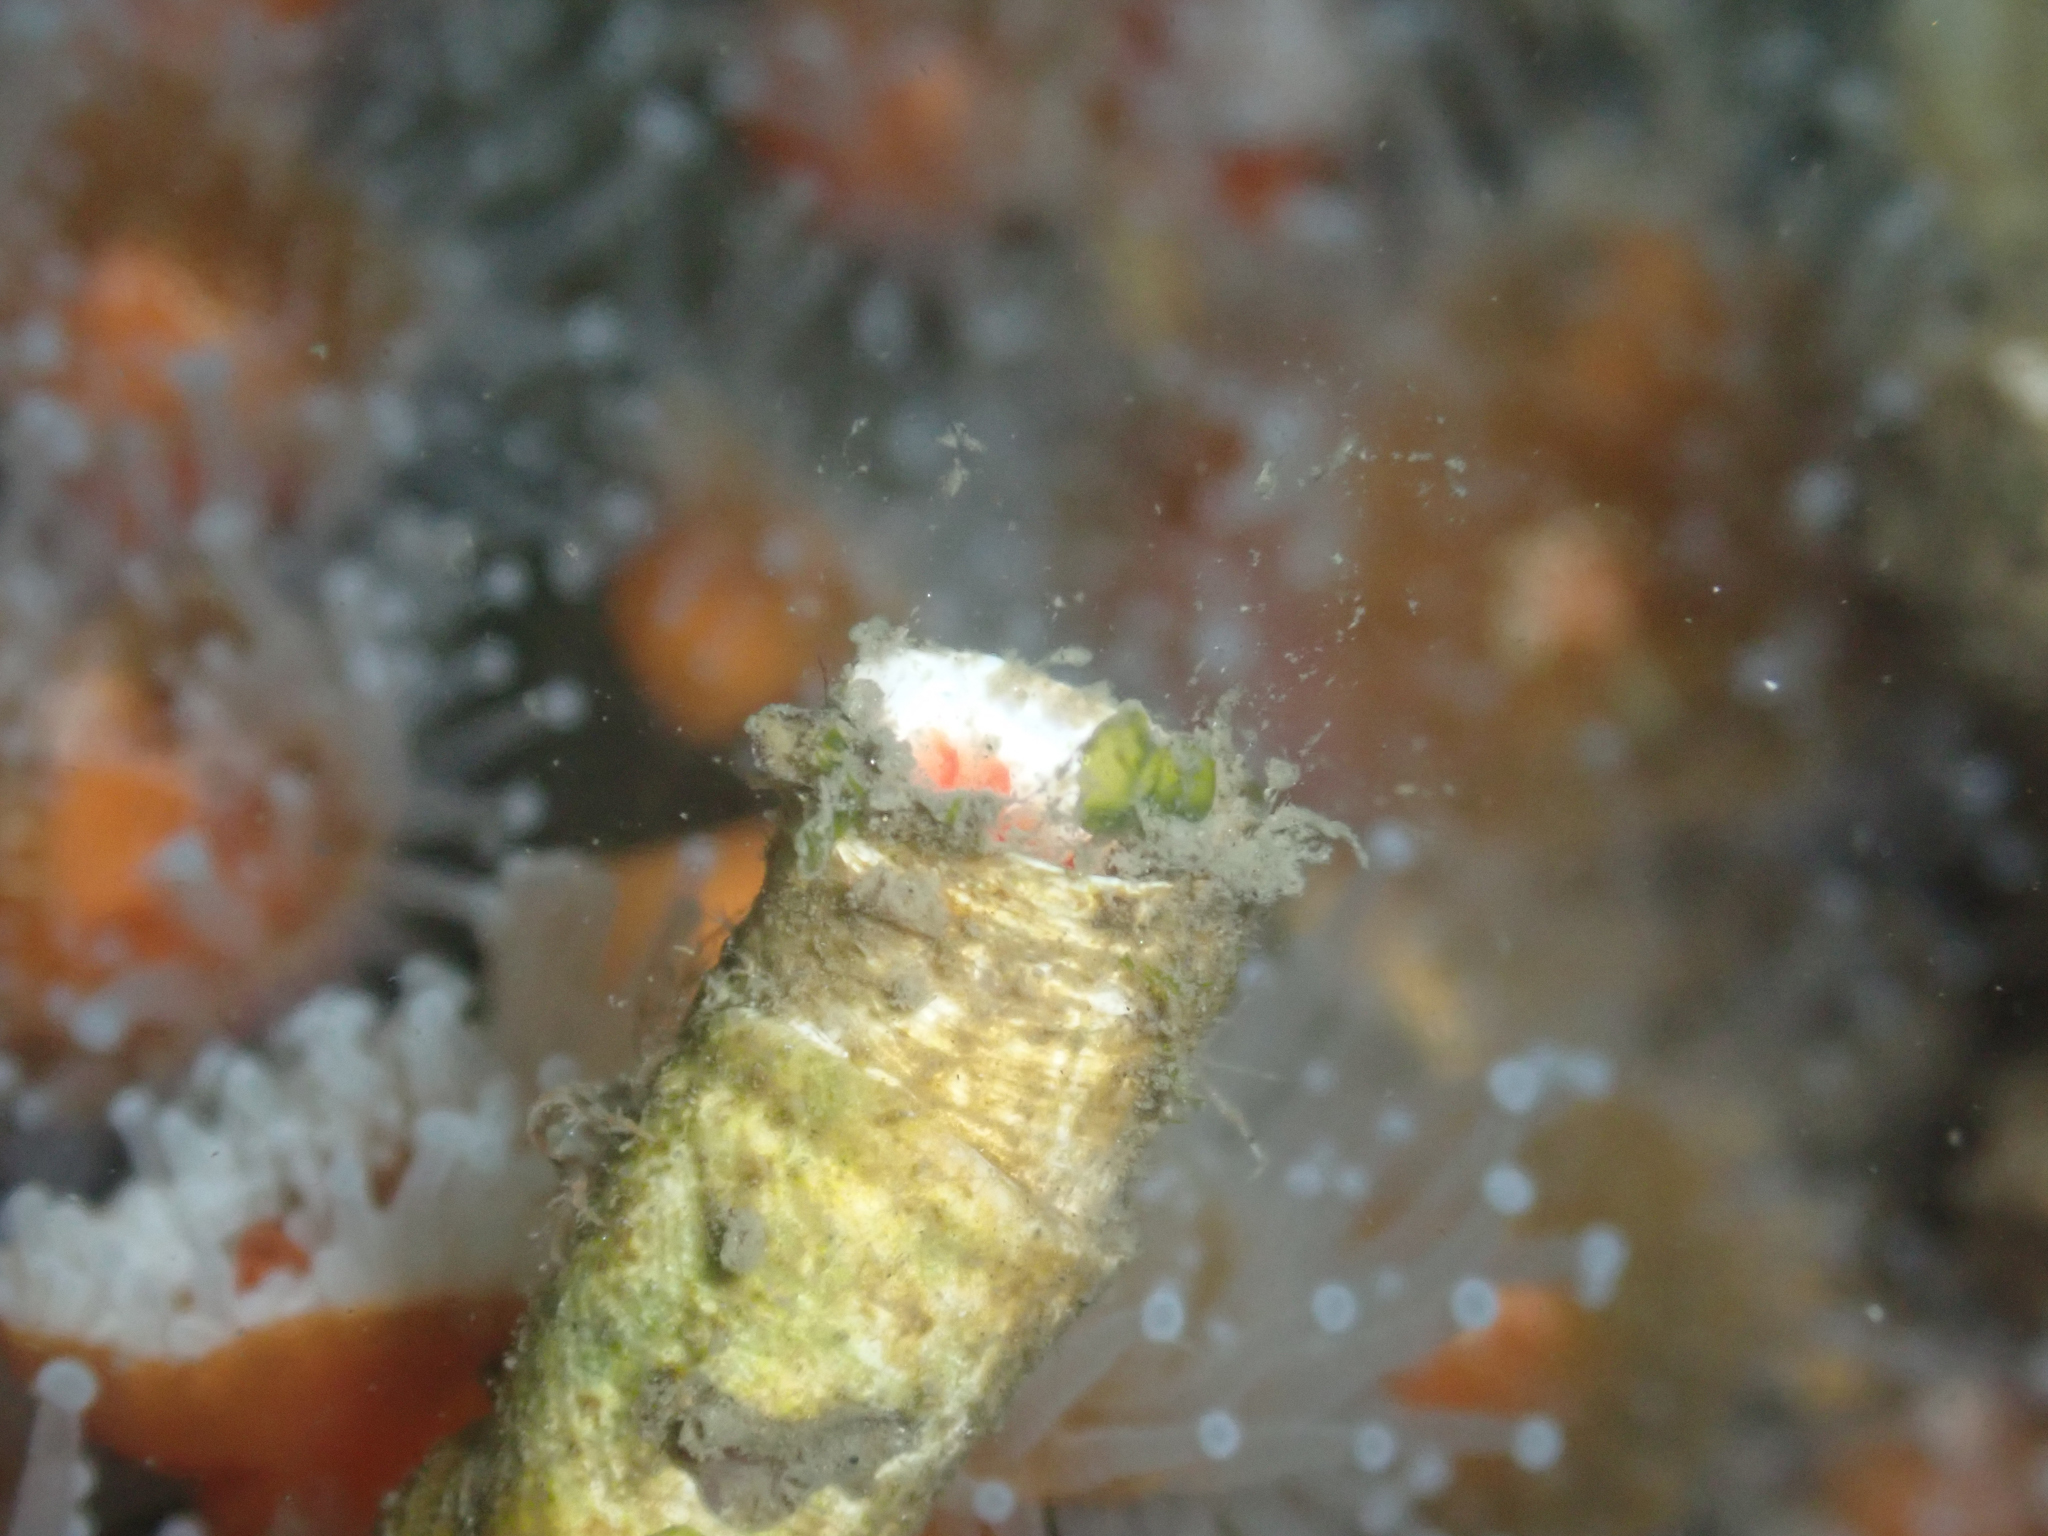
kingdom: Animalia
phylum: Annelida
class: Polychaeta
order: Sabellida
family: Serpulidae
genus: Serpula
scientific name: Serpula columbiana
